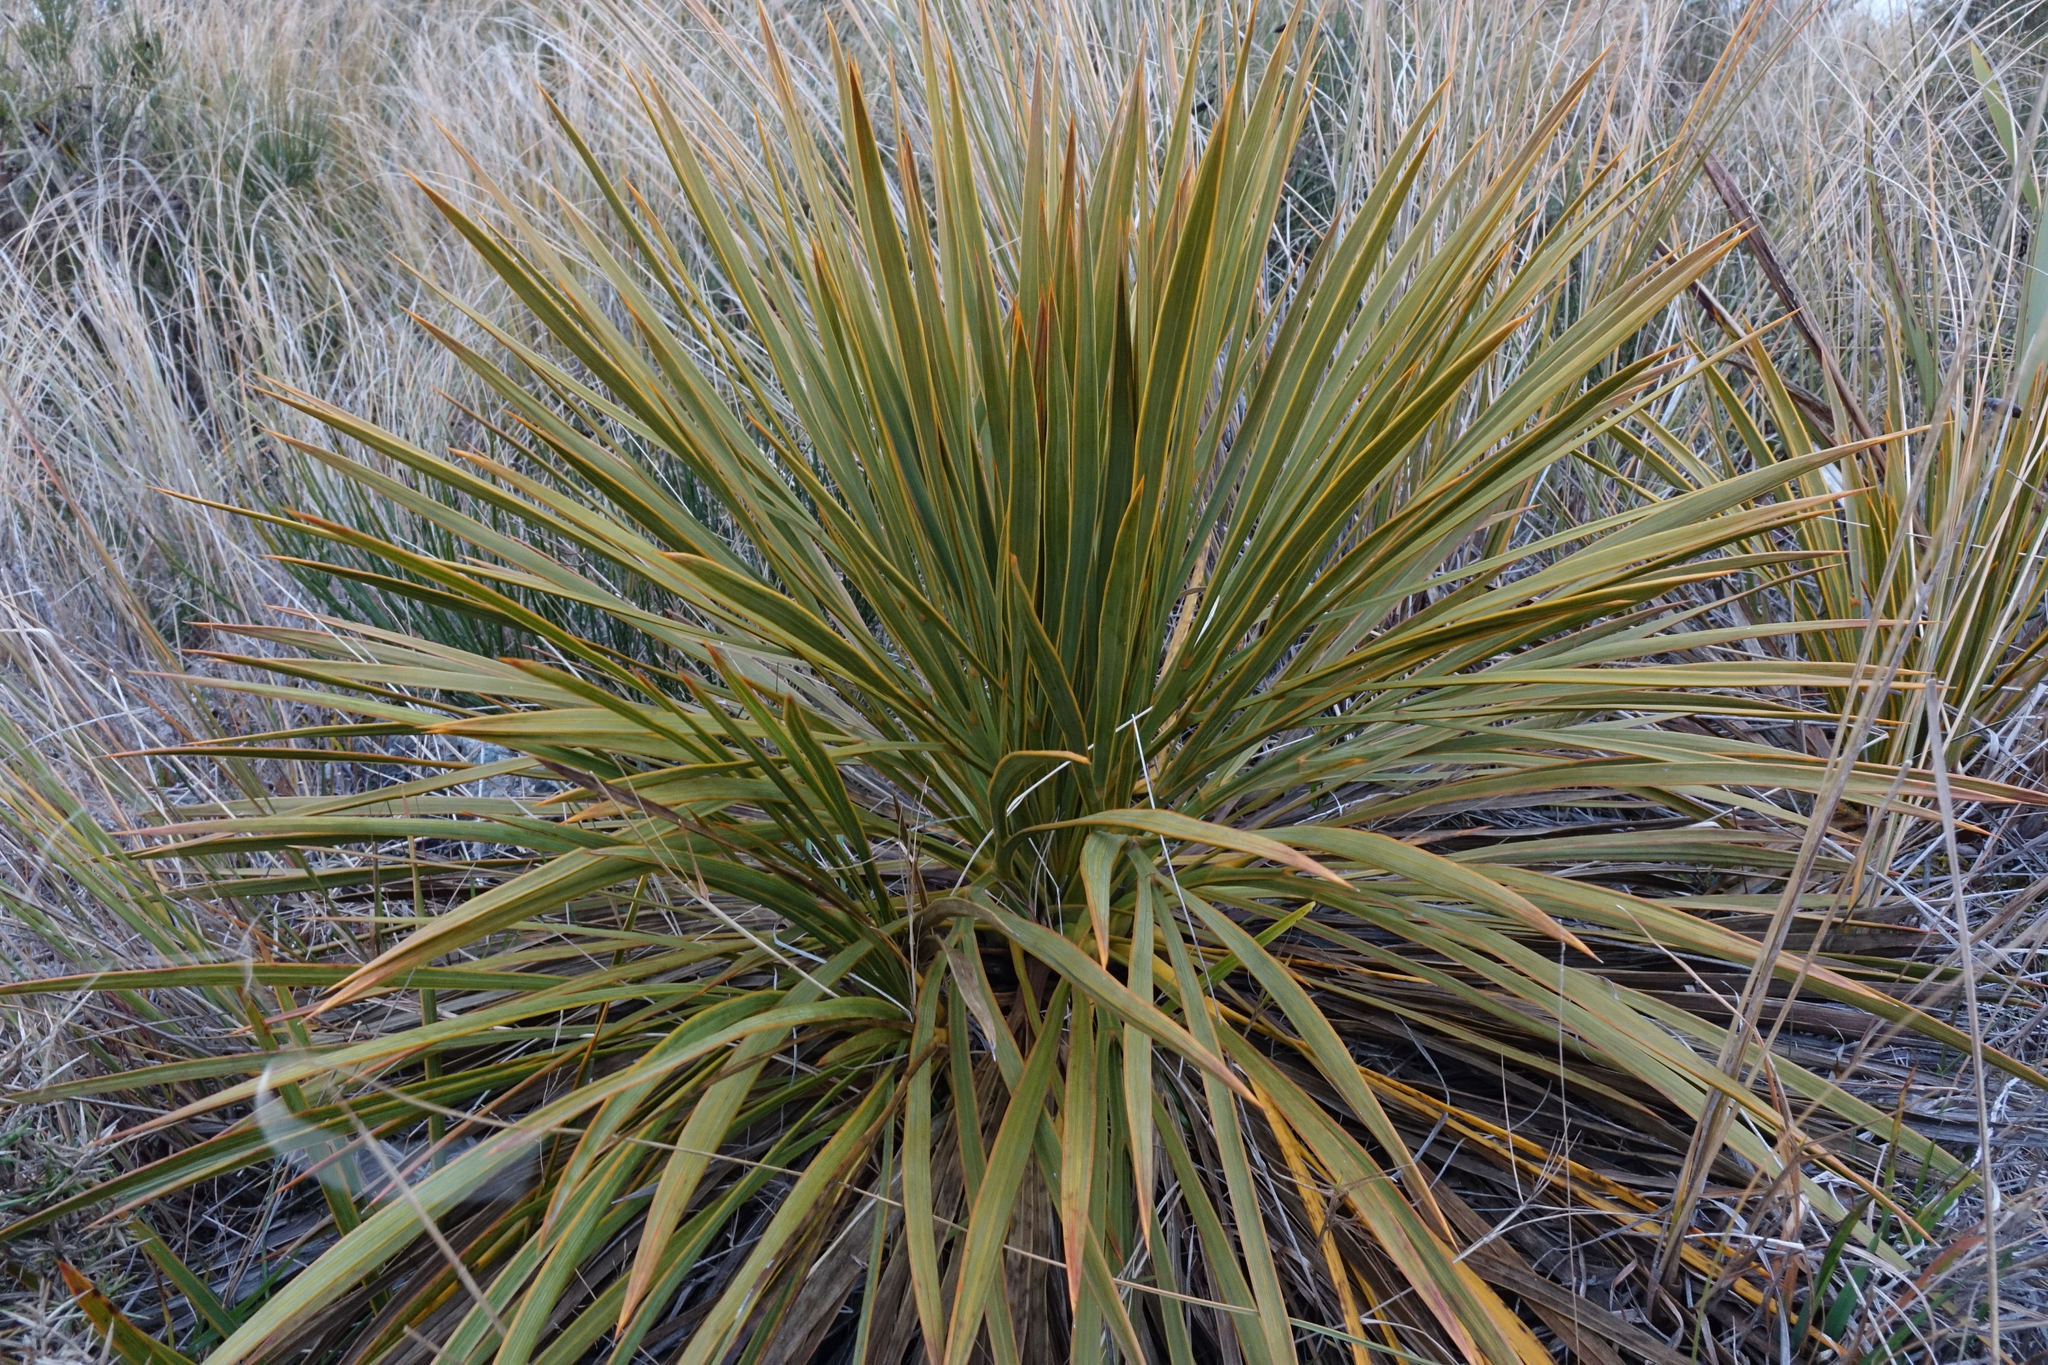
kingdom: Plantae
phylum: Tracheophyta
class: Magnoliopsida
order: Apiales
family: Apiaceae
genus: Aciphylla
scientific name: Aciphylla aurea
